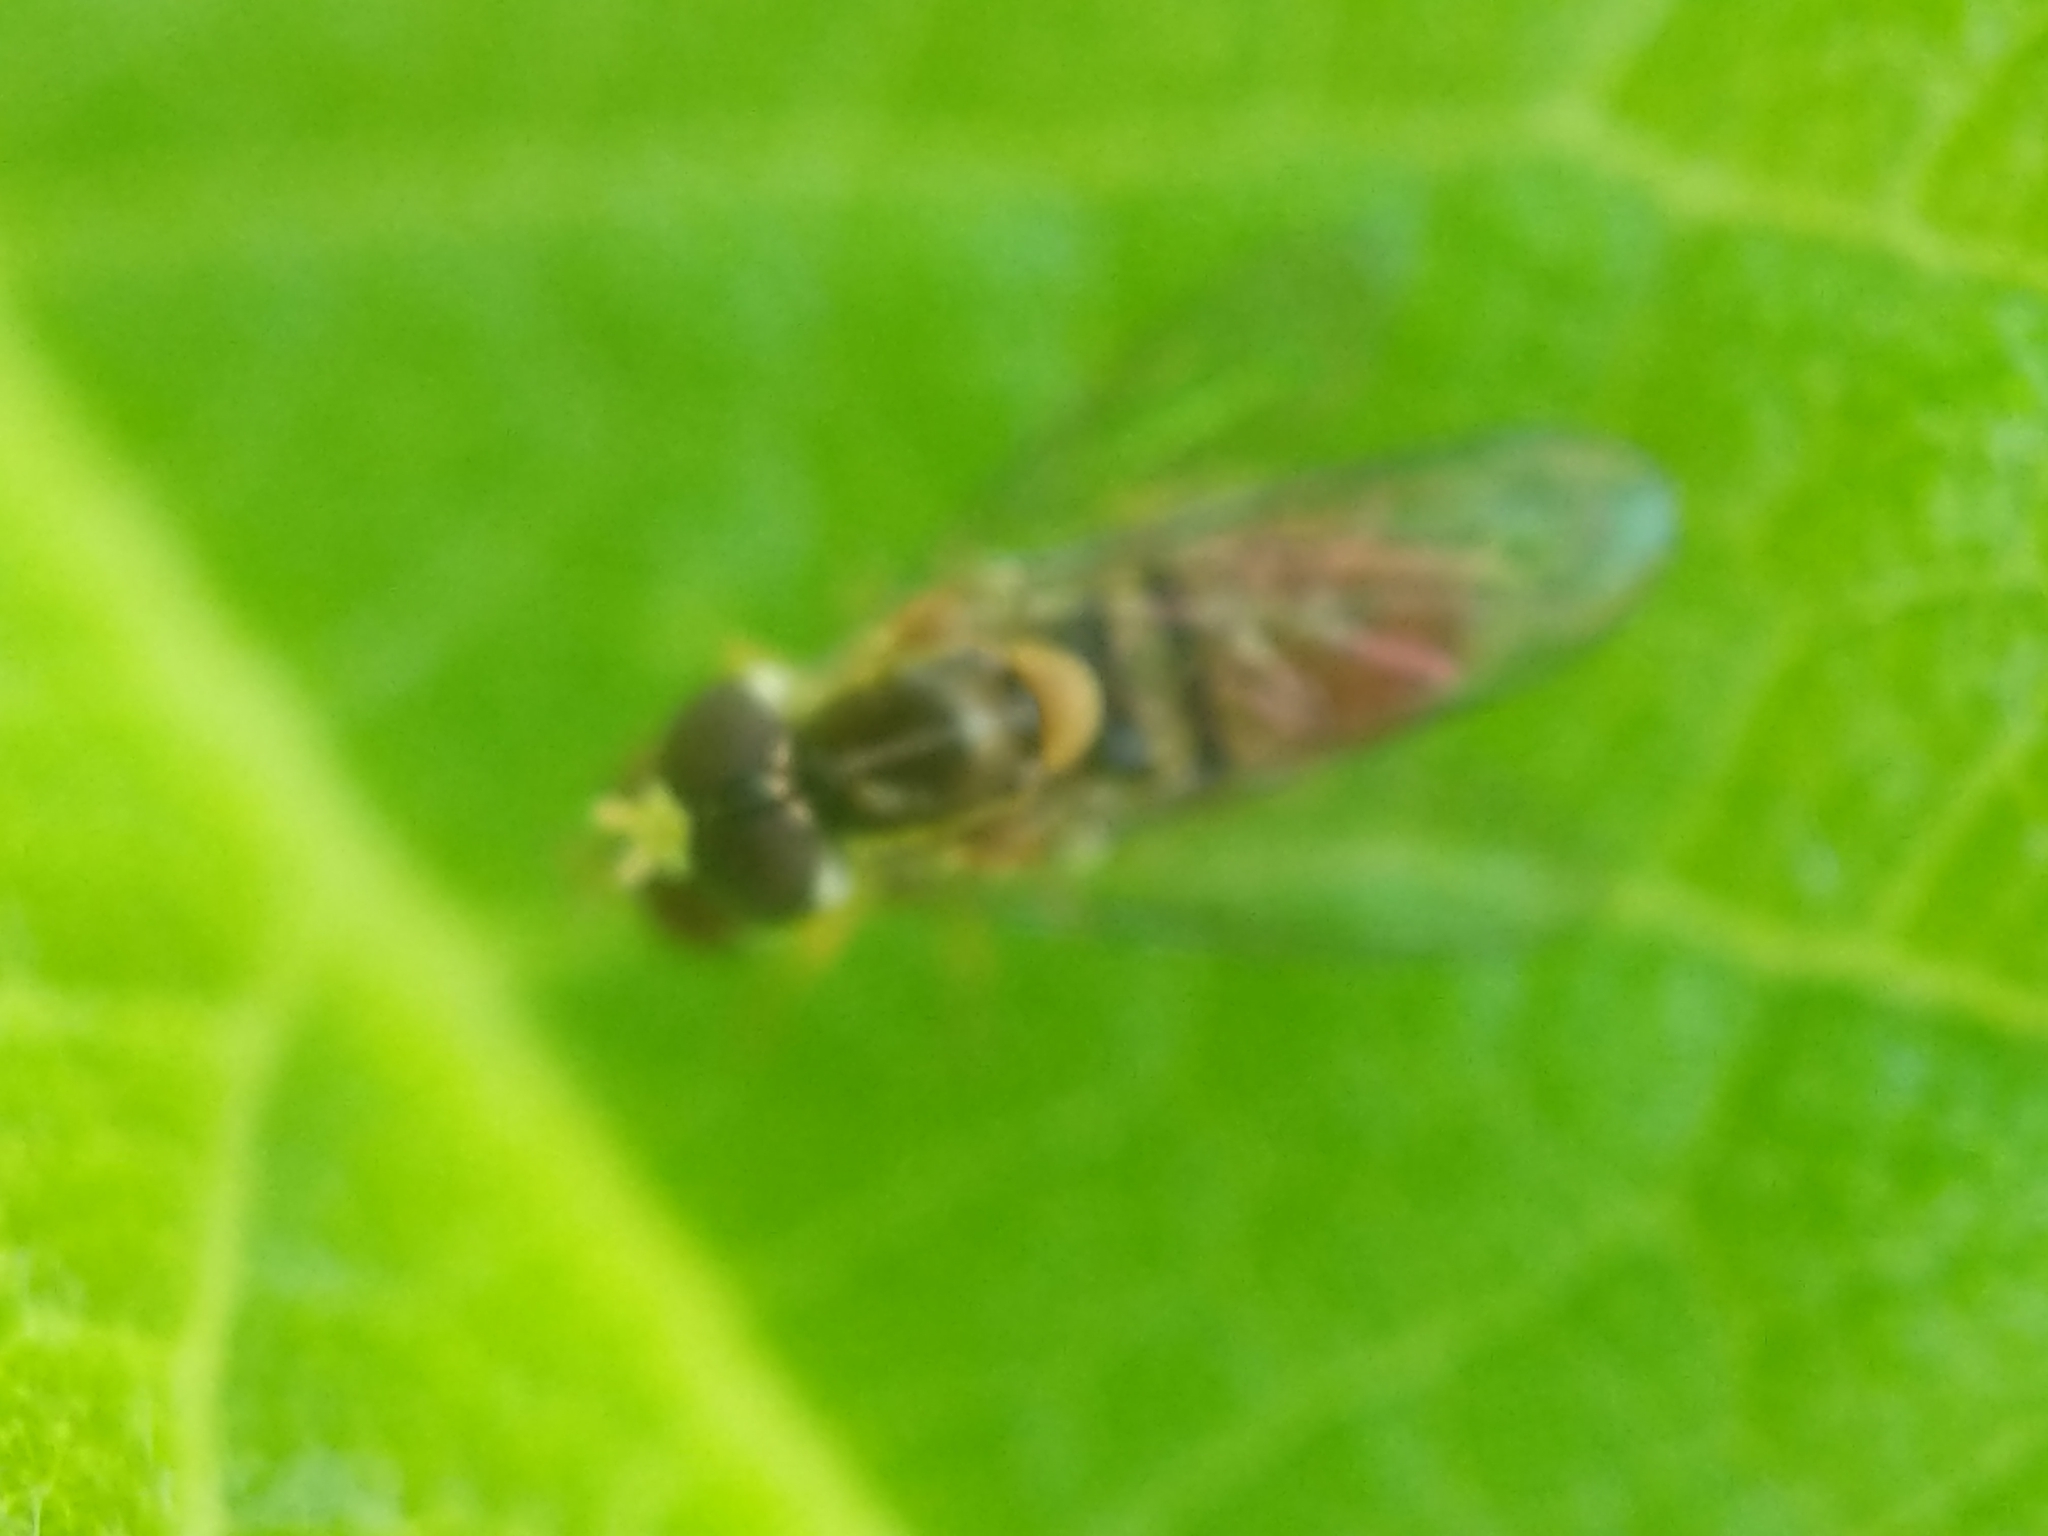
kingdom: Animalia
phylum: Arthropoda
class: Insecta
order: Diptera
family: Syrphidae
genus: Toxomerus
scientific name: Toxomerus marginatus
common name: Syrphid fly
